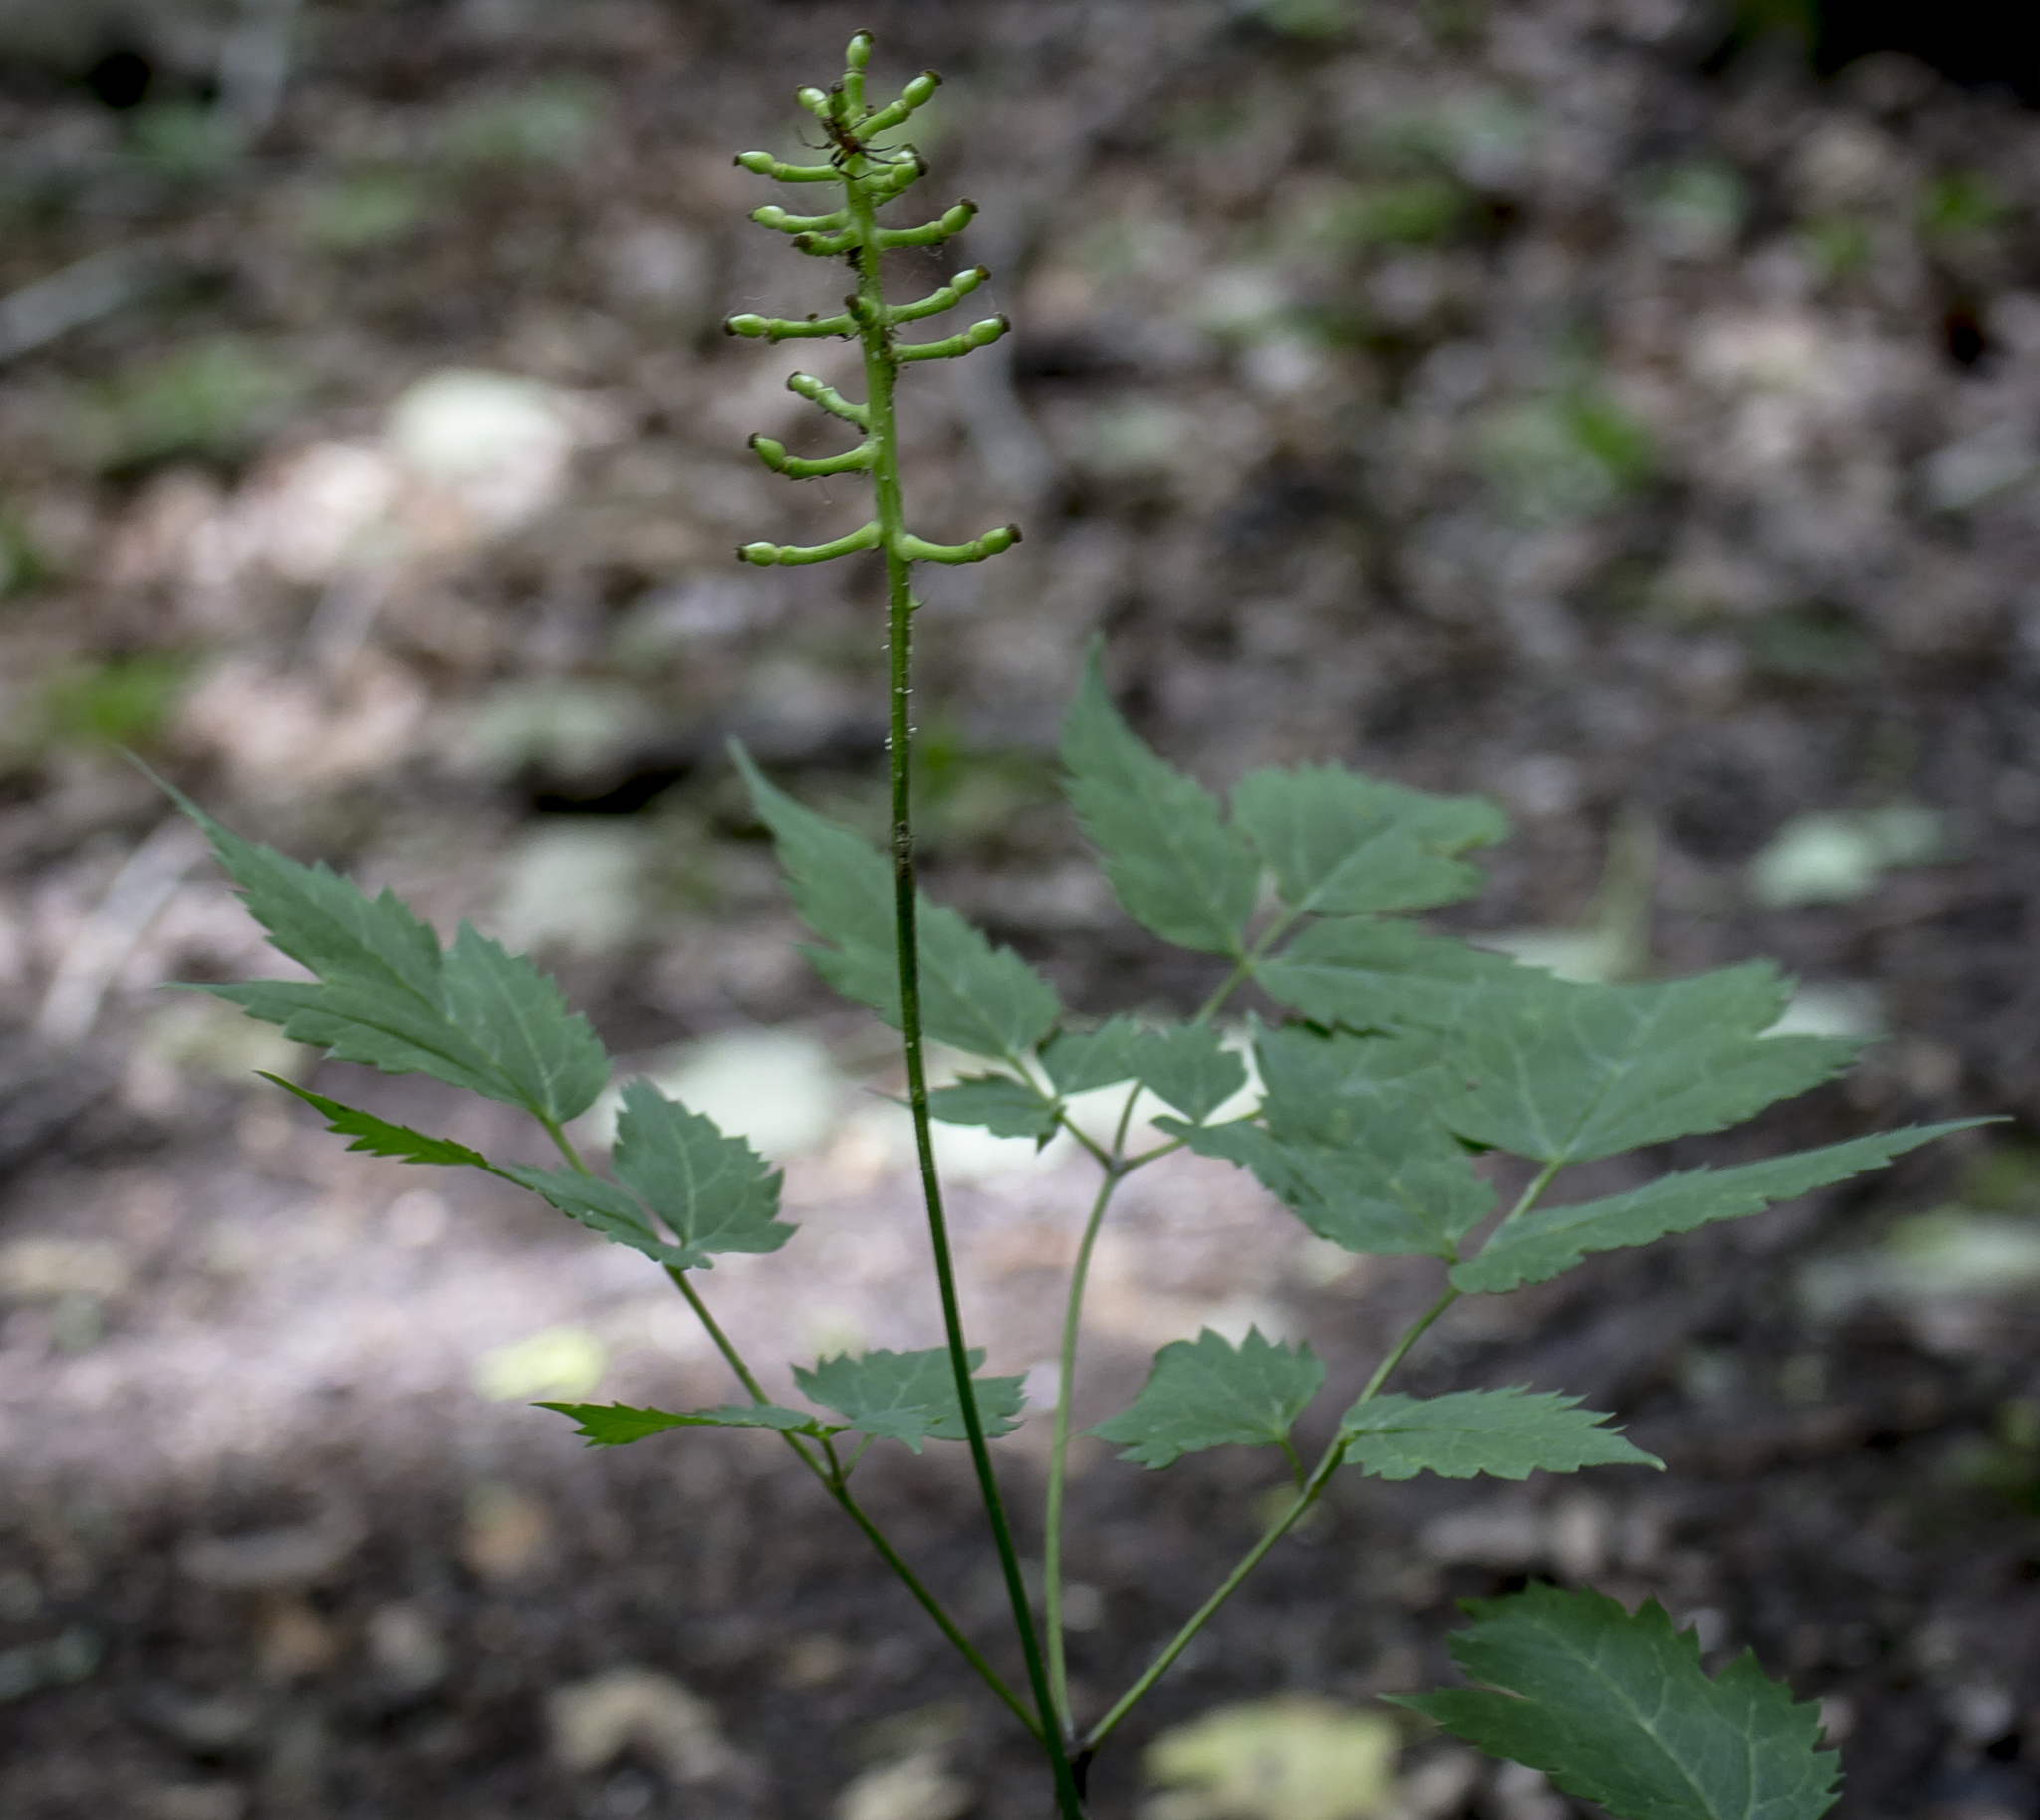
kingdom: Plantae
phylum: Tracheophyta
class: Magnoliopsida
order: Ranunculales
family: Ranunculaceae
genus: Actaea
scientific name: Actaea pachypoda
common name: Doll's-eyes
